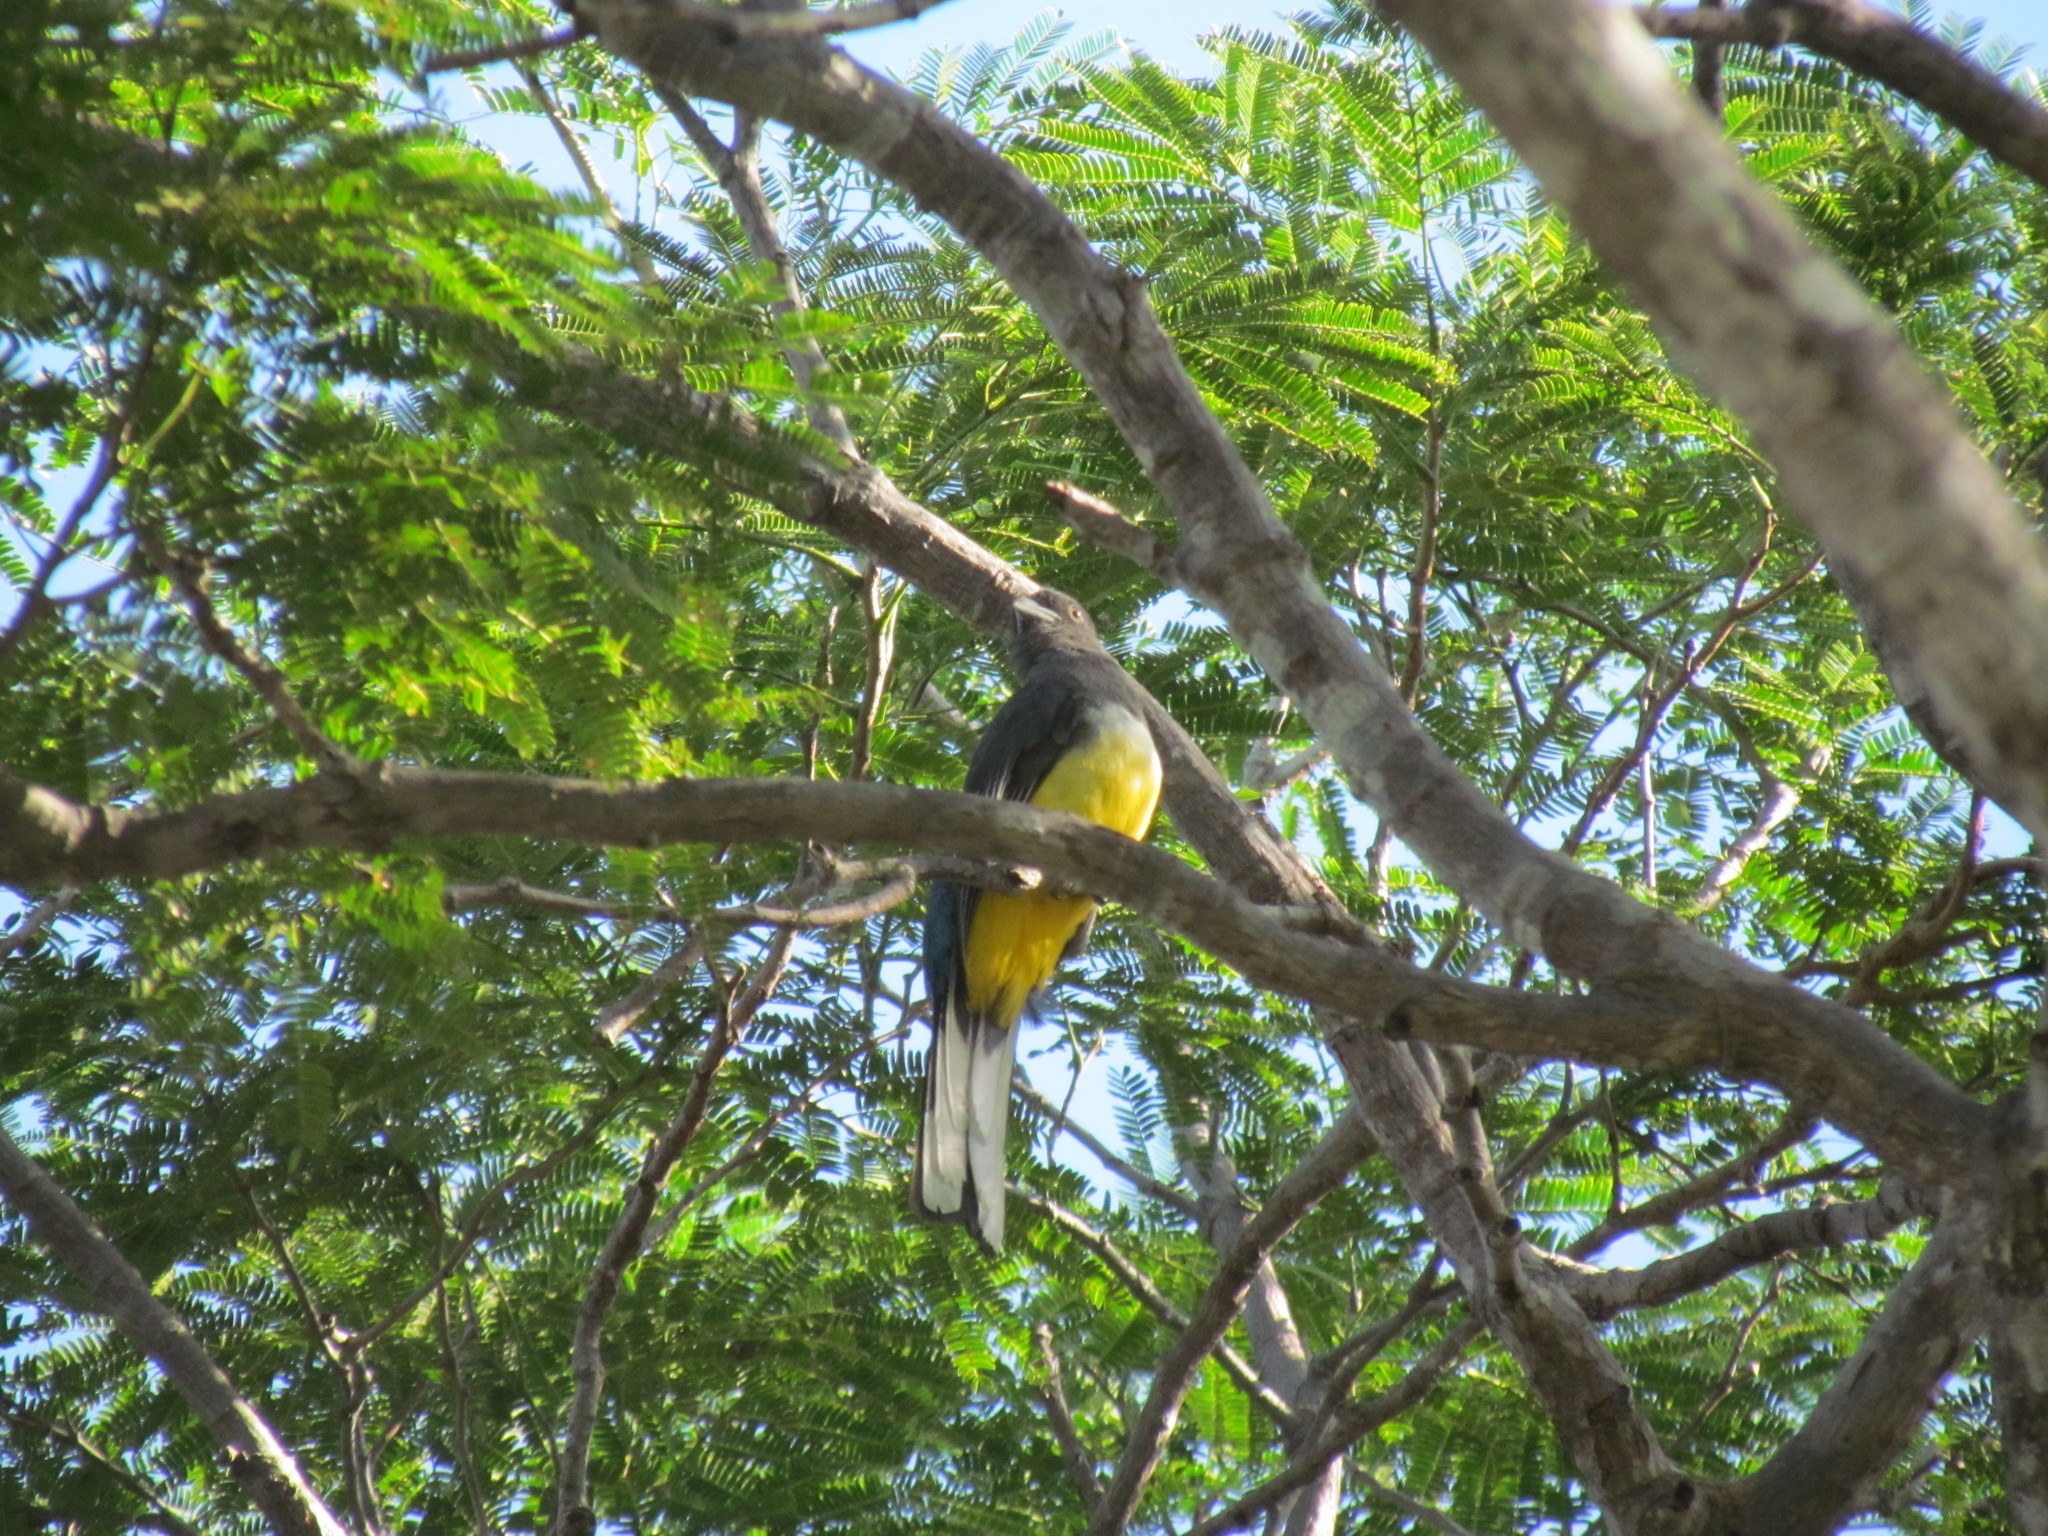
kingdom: Animalia
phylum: Chordata
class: Aves
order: Trogoniformes
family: Trogonidae
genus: Trogon
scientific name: Trogon citreolus
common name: Citreoline trogon
